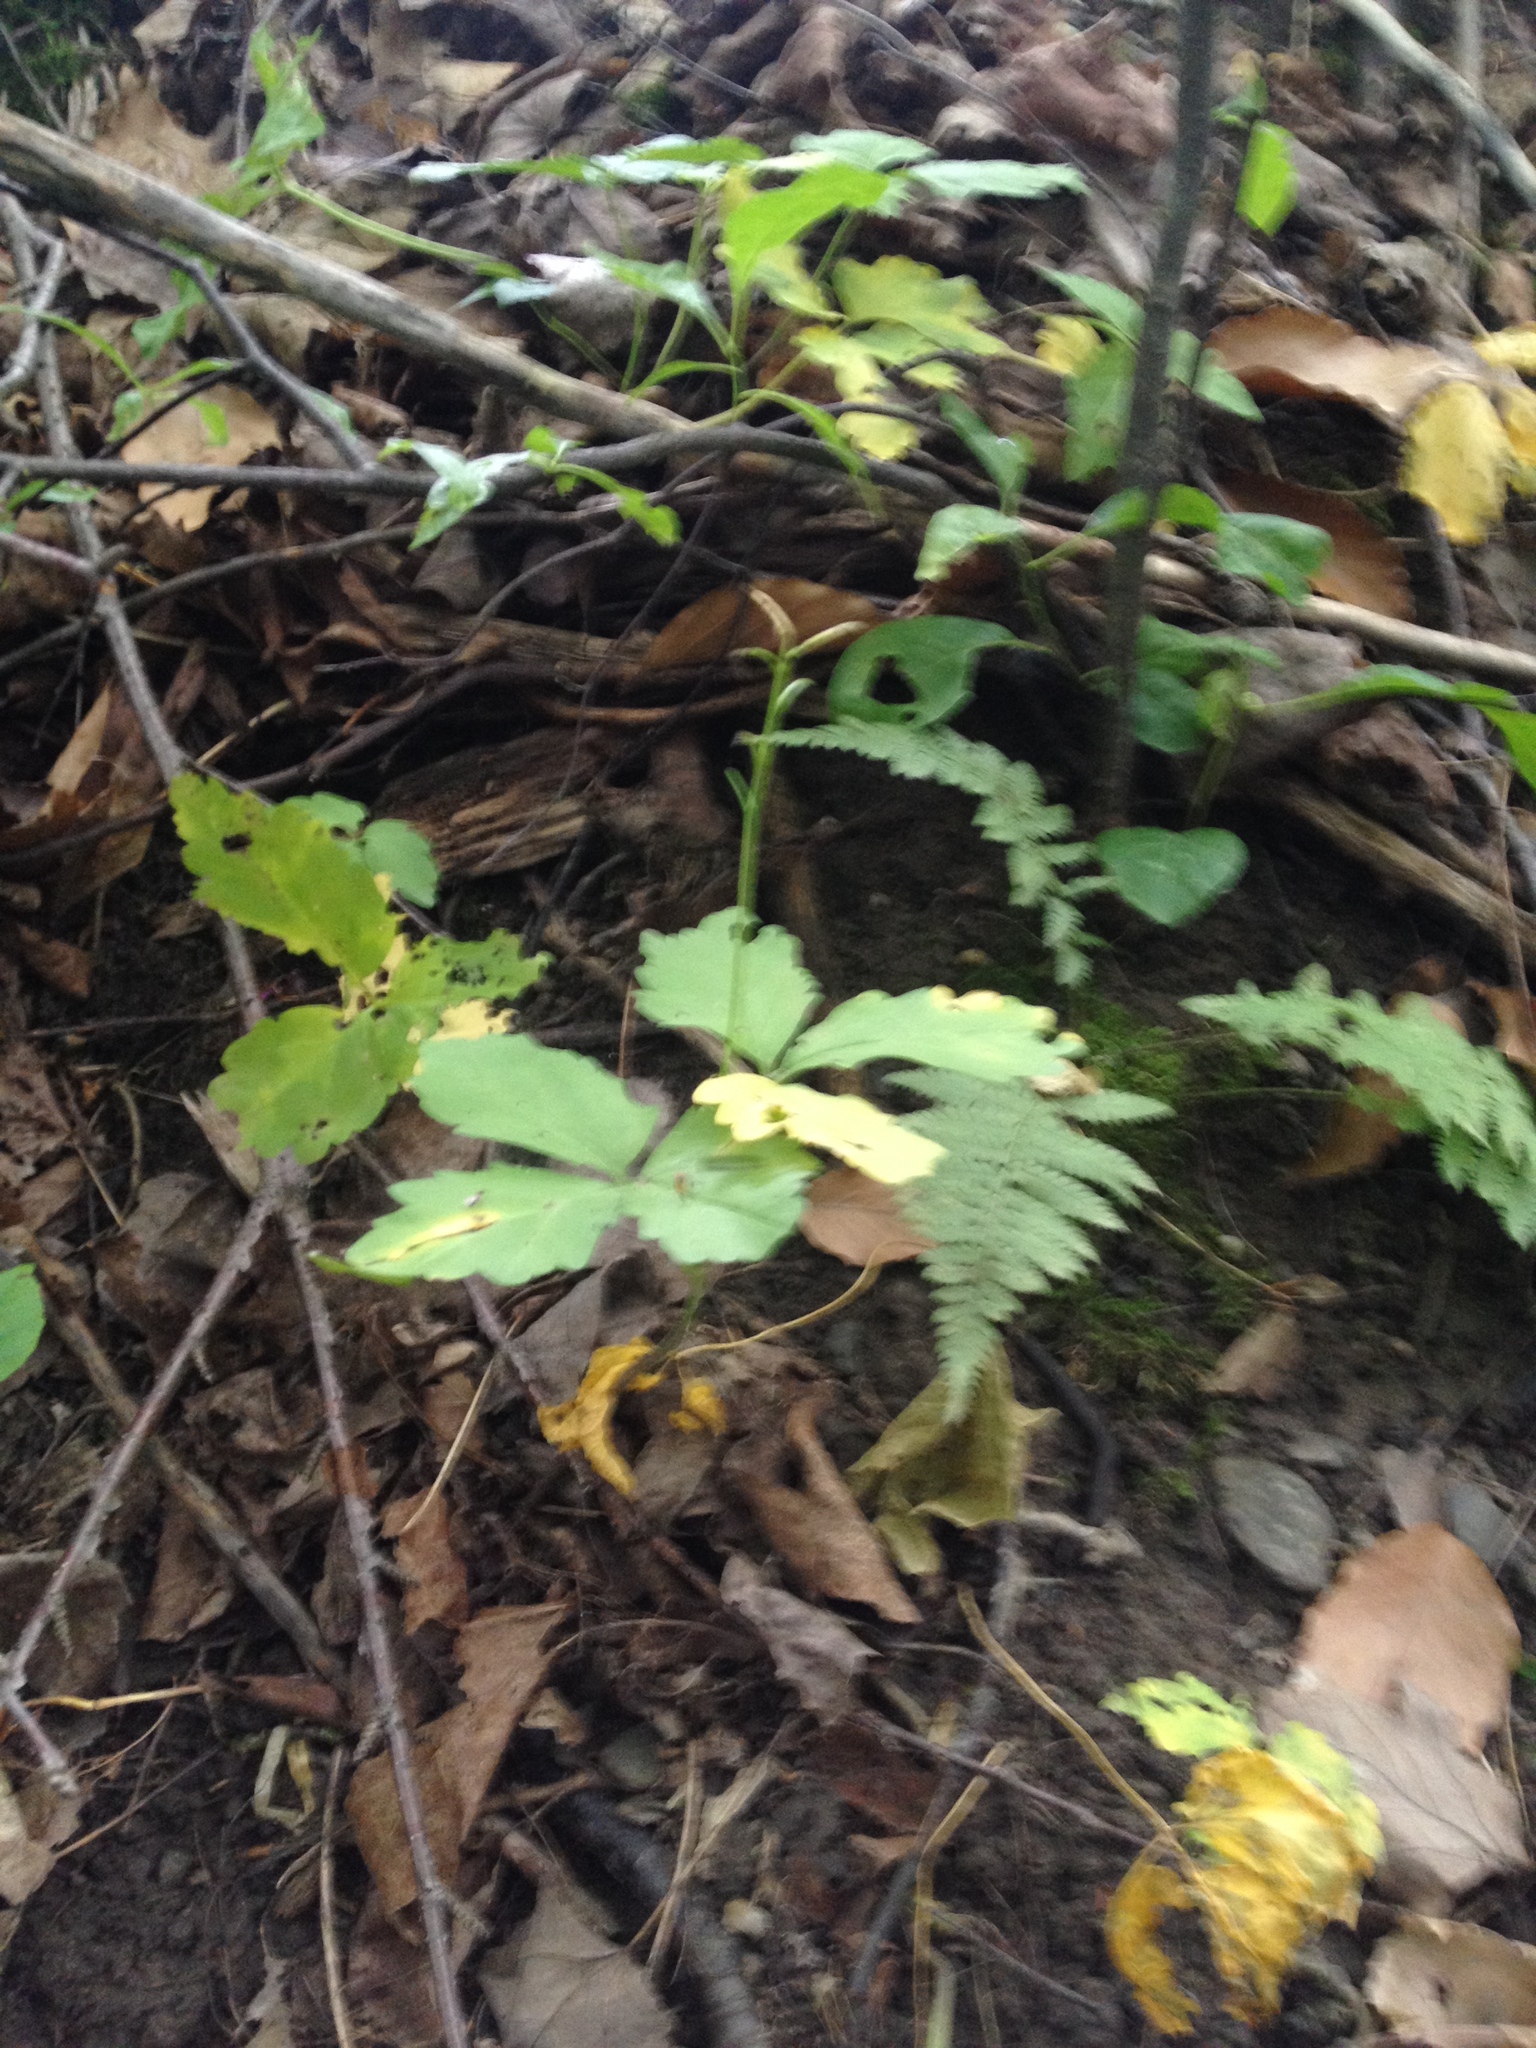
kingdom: Plantae
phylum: Tracheophyta
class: Magnoliopsida
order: Brassicales
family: Brassicaceae
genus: Cardamine
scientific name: Cardamine diphylla
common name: Broad-leaved toothwort
